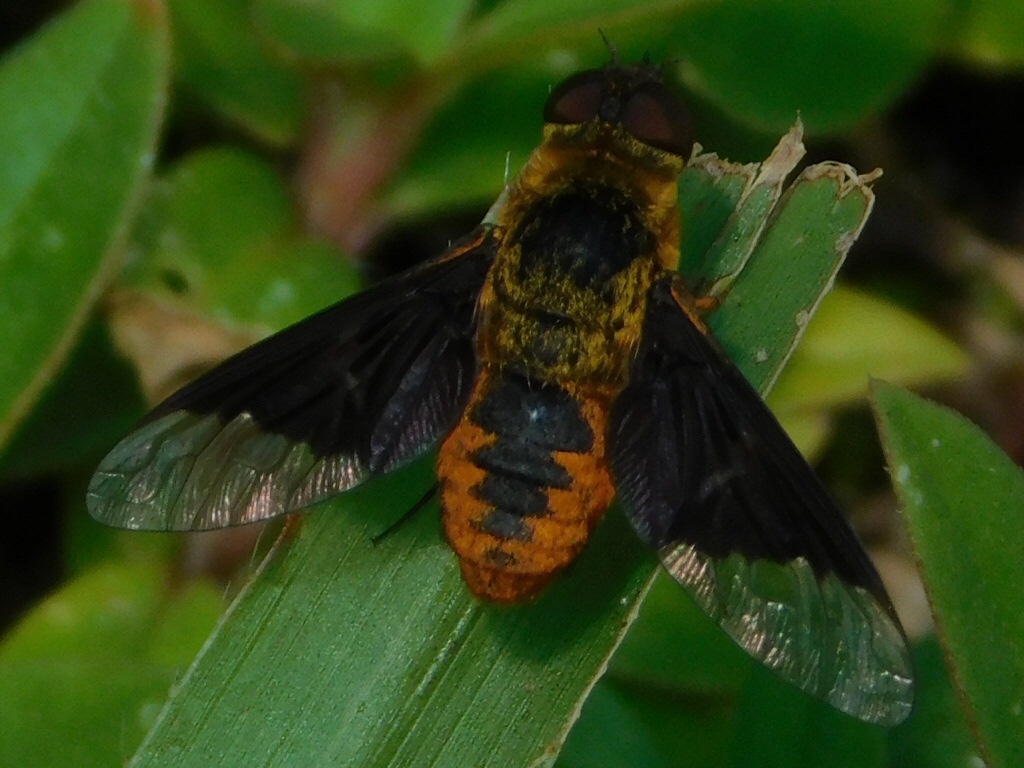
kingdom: Animalia
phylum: Arthropoda
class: Insecta
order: Diptera
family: Bombyliidae
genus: Chrysanthrax
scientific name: Chrysanthrax cypris
